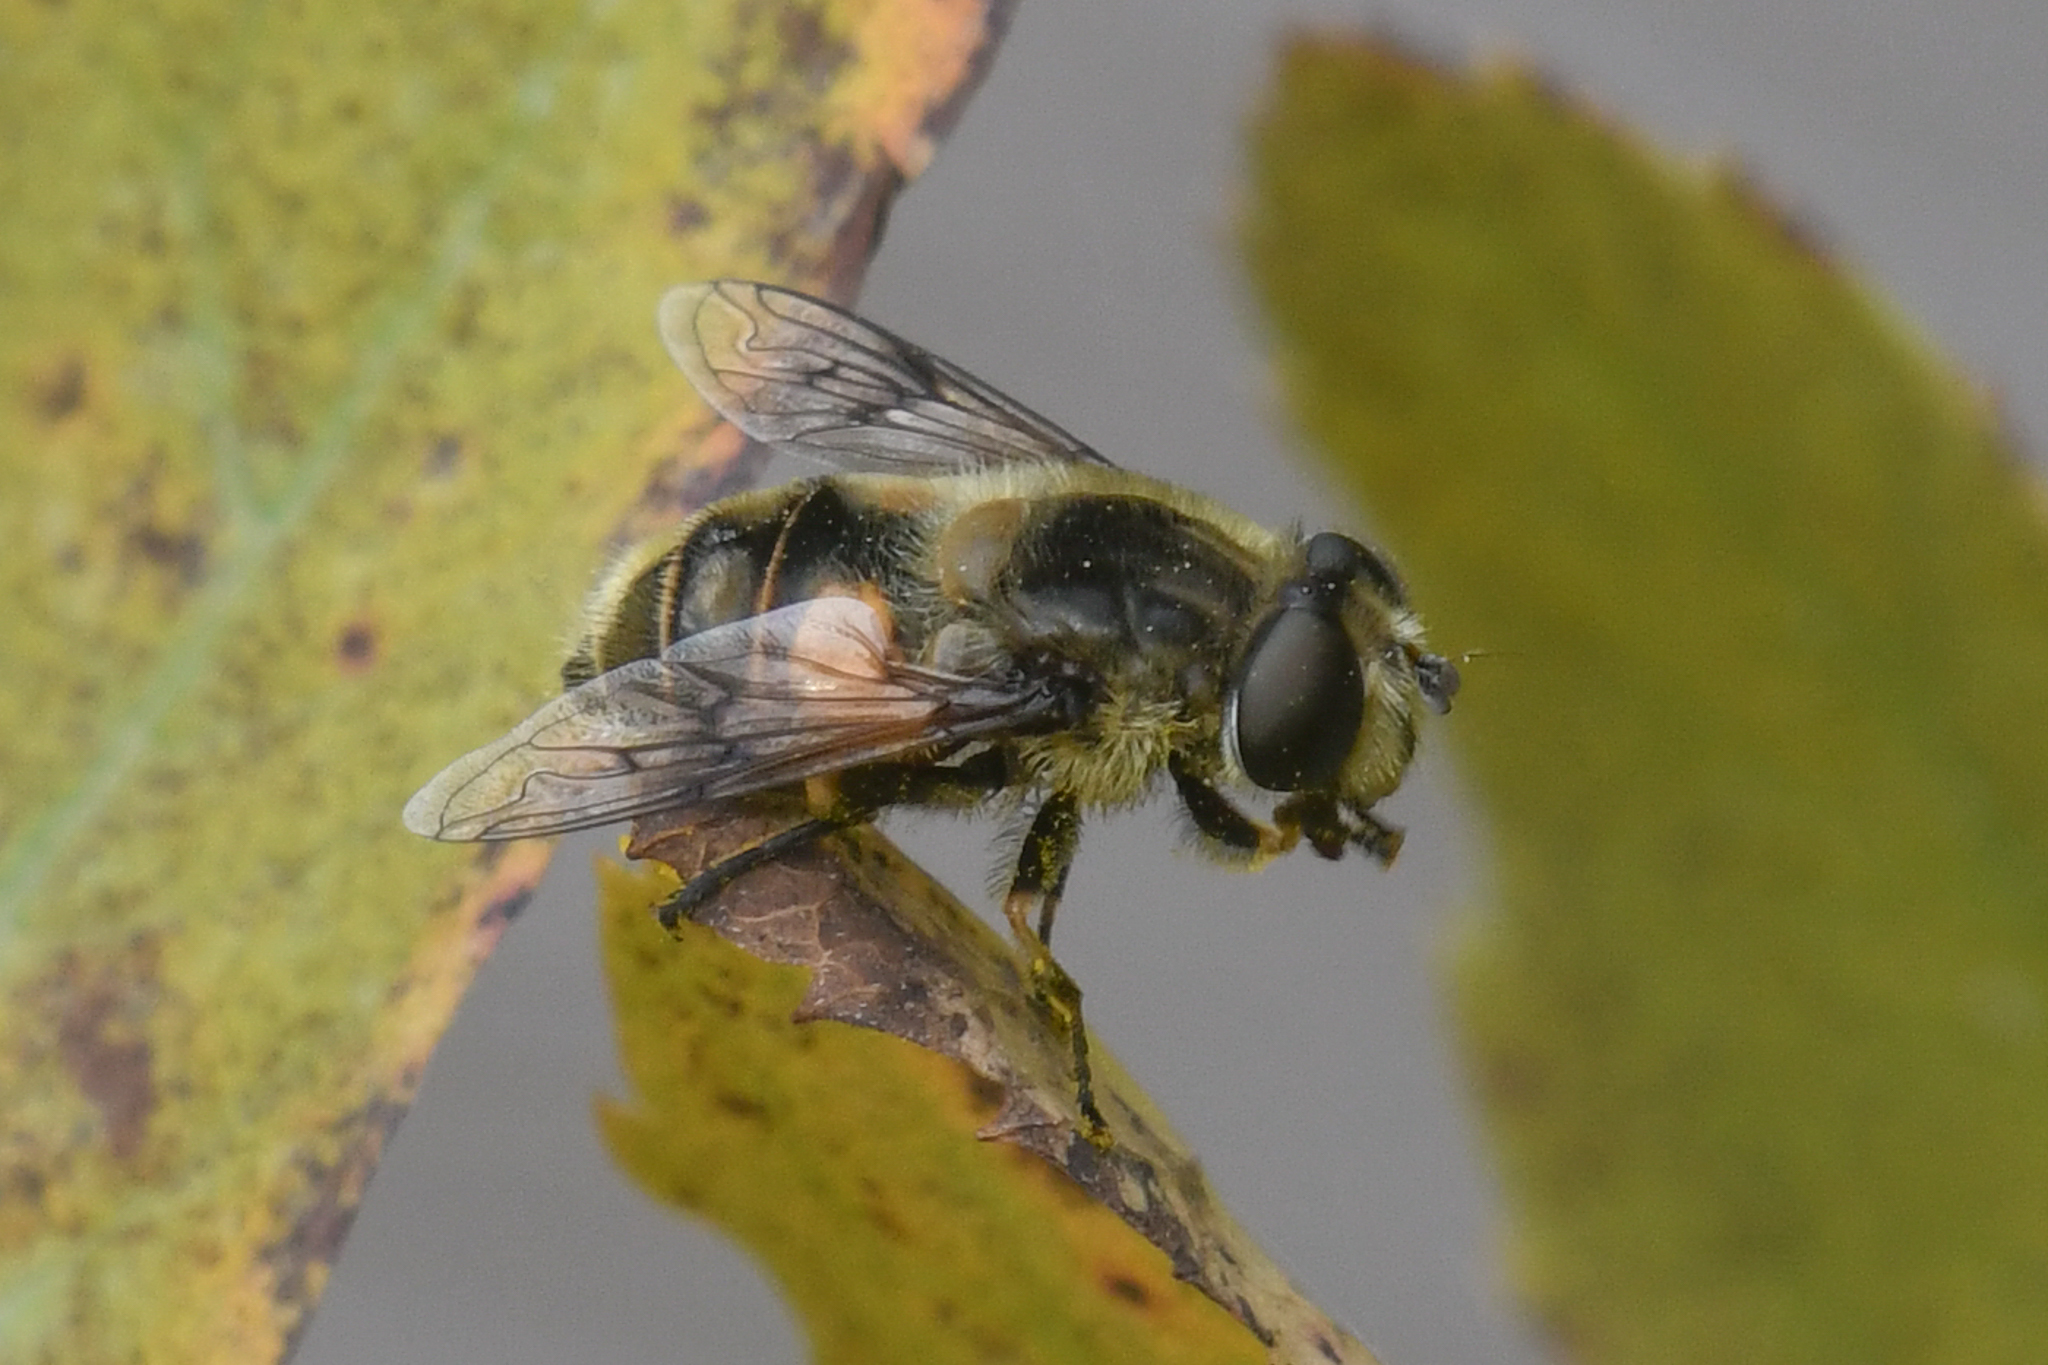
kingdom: Animalia
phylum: Arthropoda
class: Insecta
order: Diptera
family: Syrphidae
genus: Eristalis
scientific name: Eristalis anthophorina
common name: Orange-spotted drone fly
